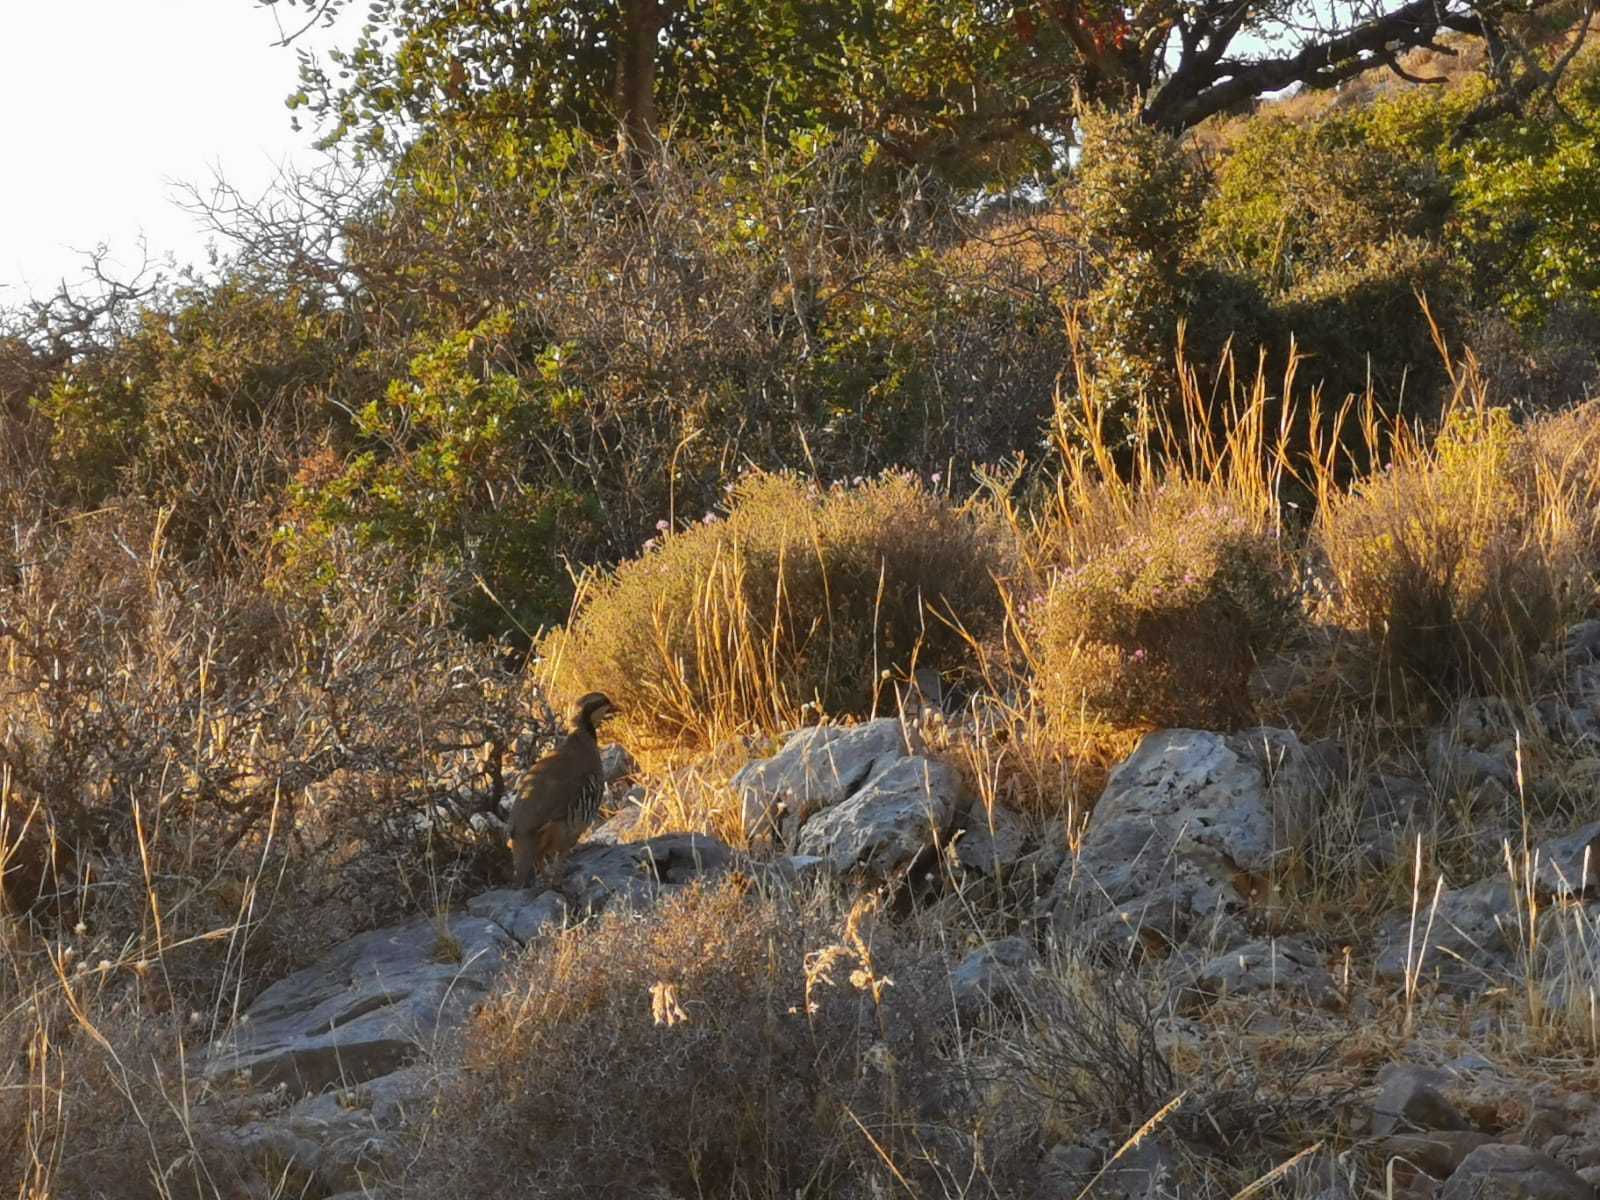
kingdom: Animalia
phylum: Chordata
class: Aves
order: Galliformes
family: Phasianidae
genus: Alectoris
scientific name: Alectoris chukar
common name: Chukar
